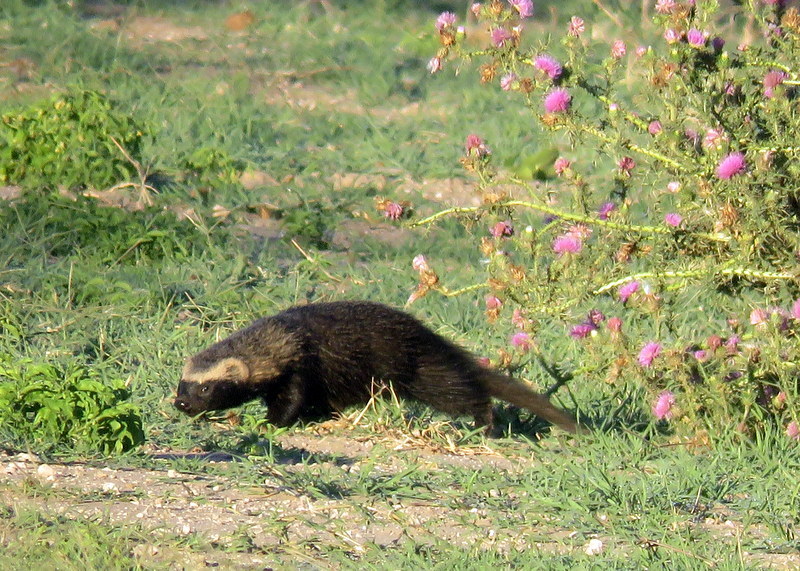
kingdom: Animalia
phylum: Chordata
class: Mammalia
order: Carnivora
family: Mustelidae
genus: Galictis
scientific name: Galictis cuja
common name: Lesser grison
